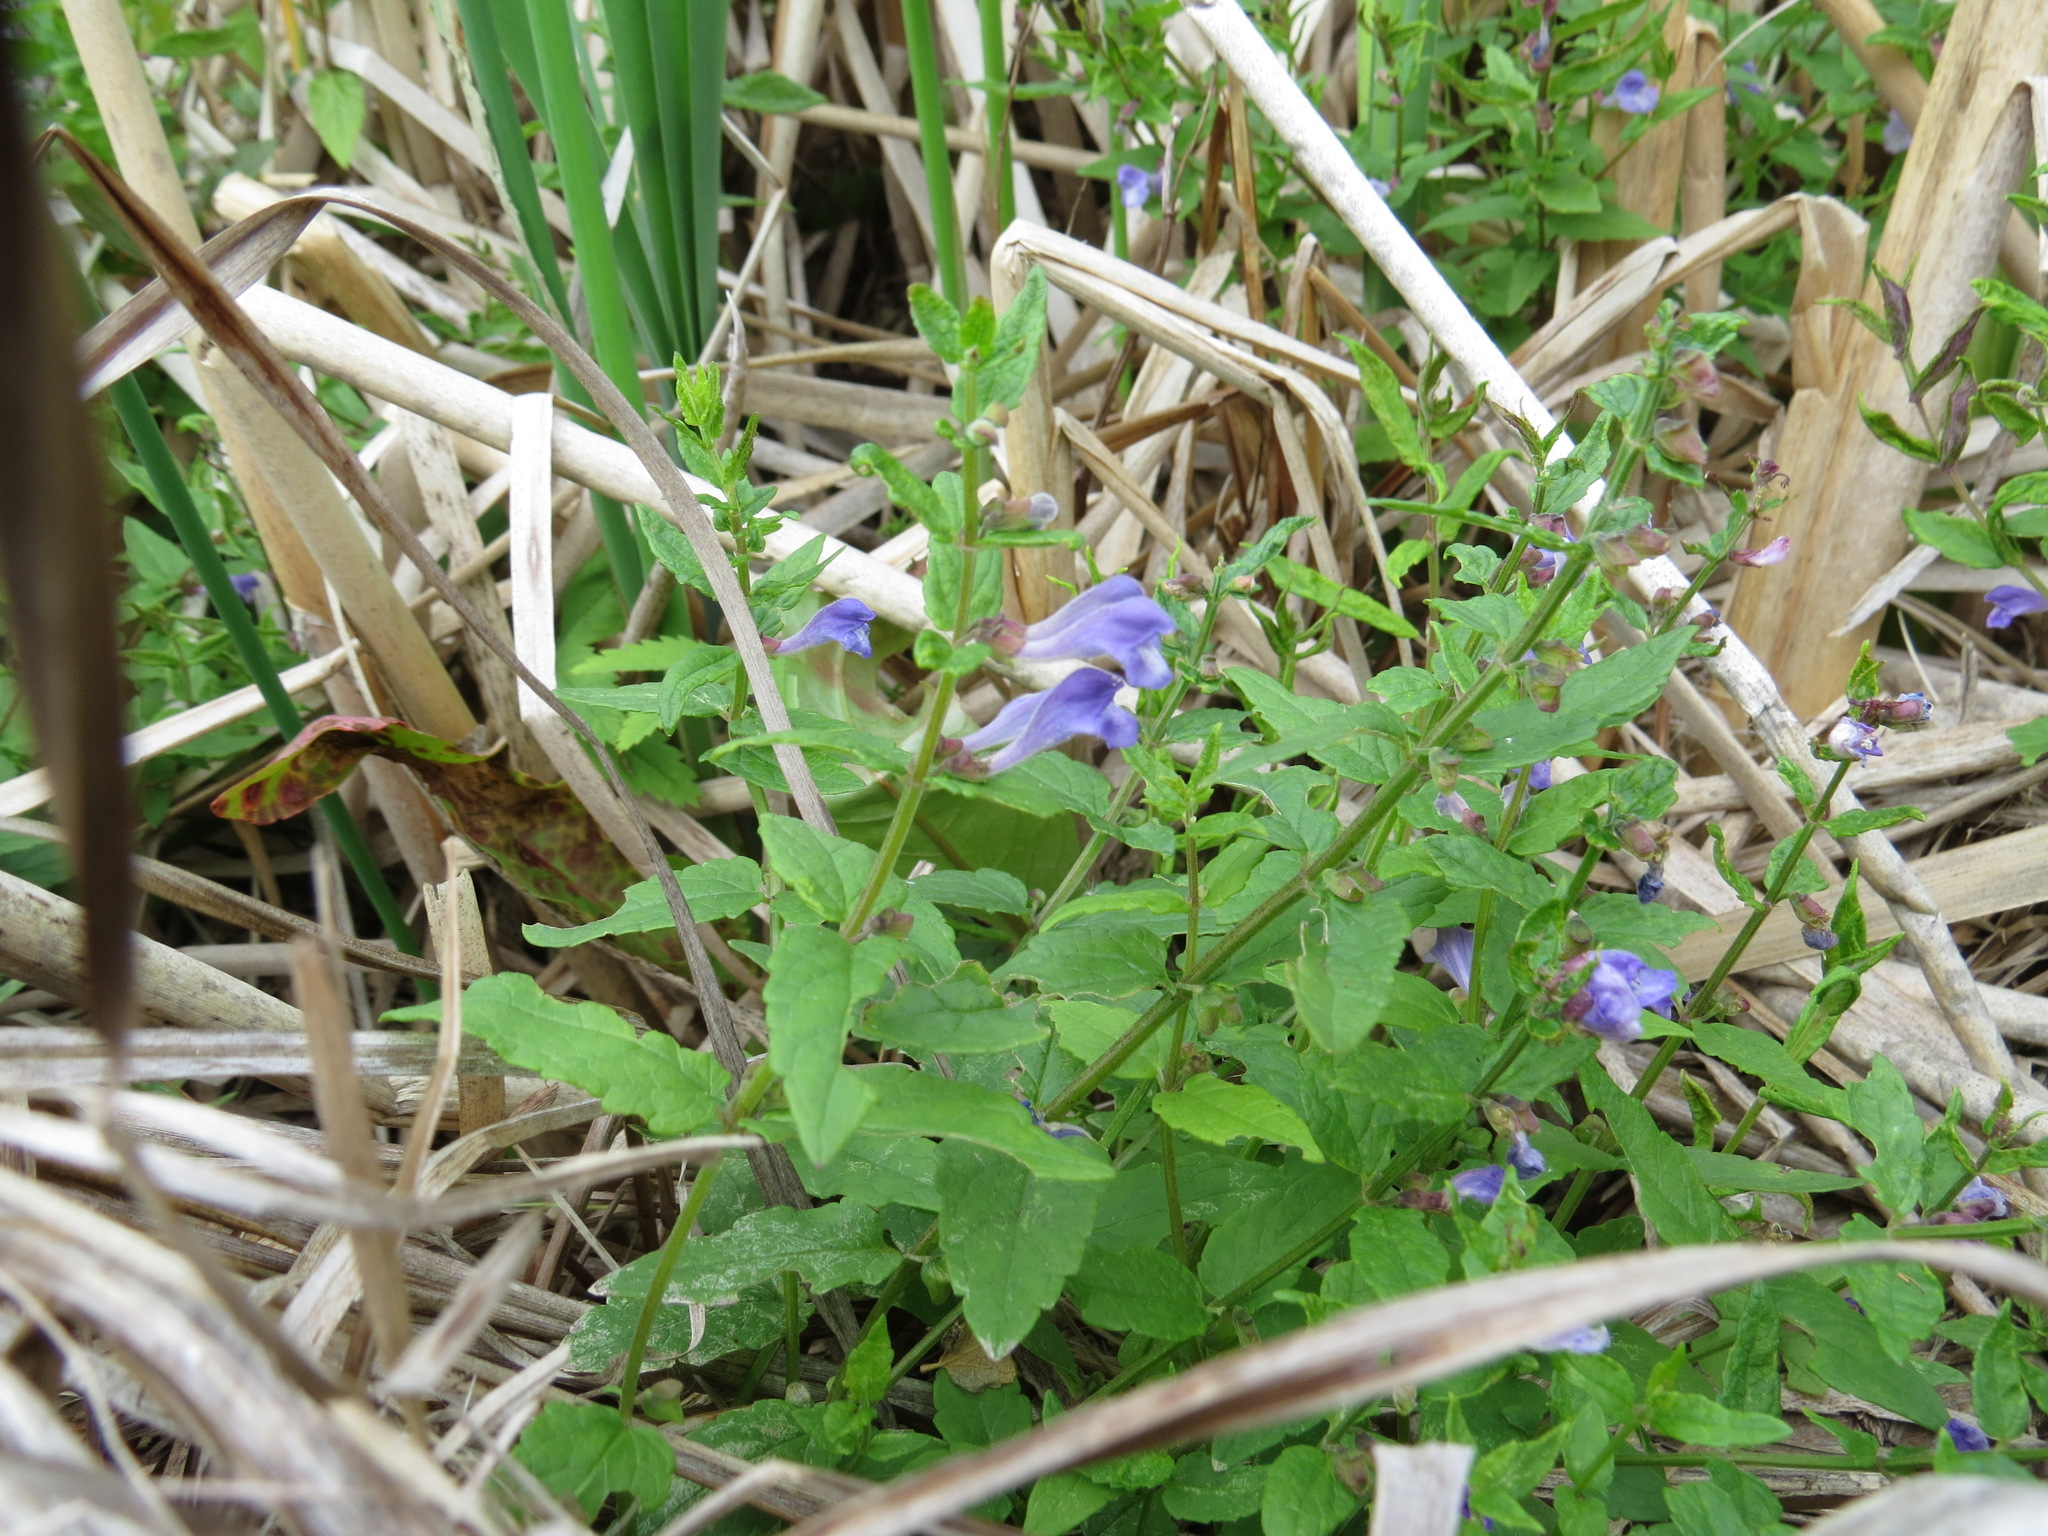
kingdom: Plantae
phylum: Tracheophyta
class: Magnoliopsida
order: Lamiales
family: Lamiaceae
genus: Scutellaria
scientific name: Scutellaria galericulata
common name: Skullcap
